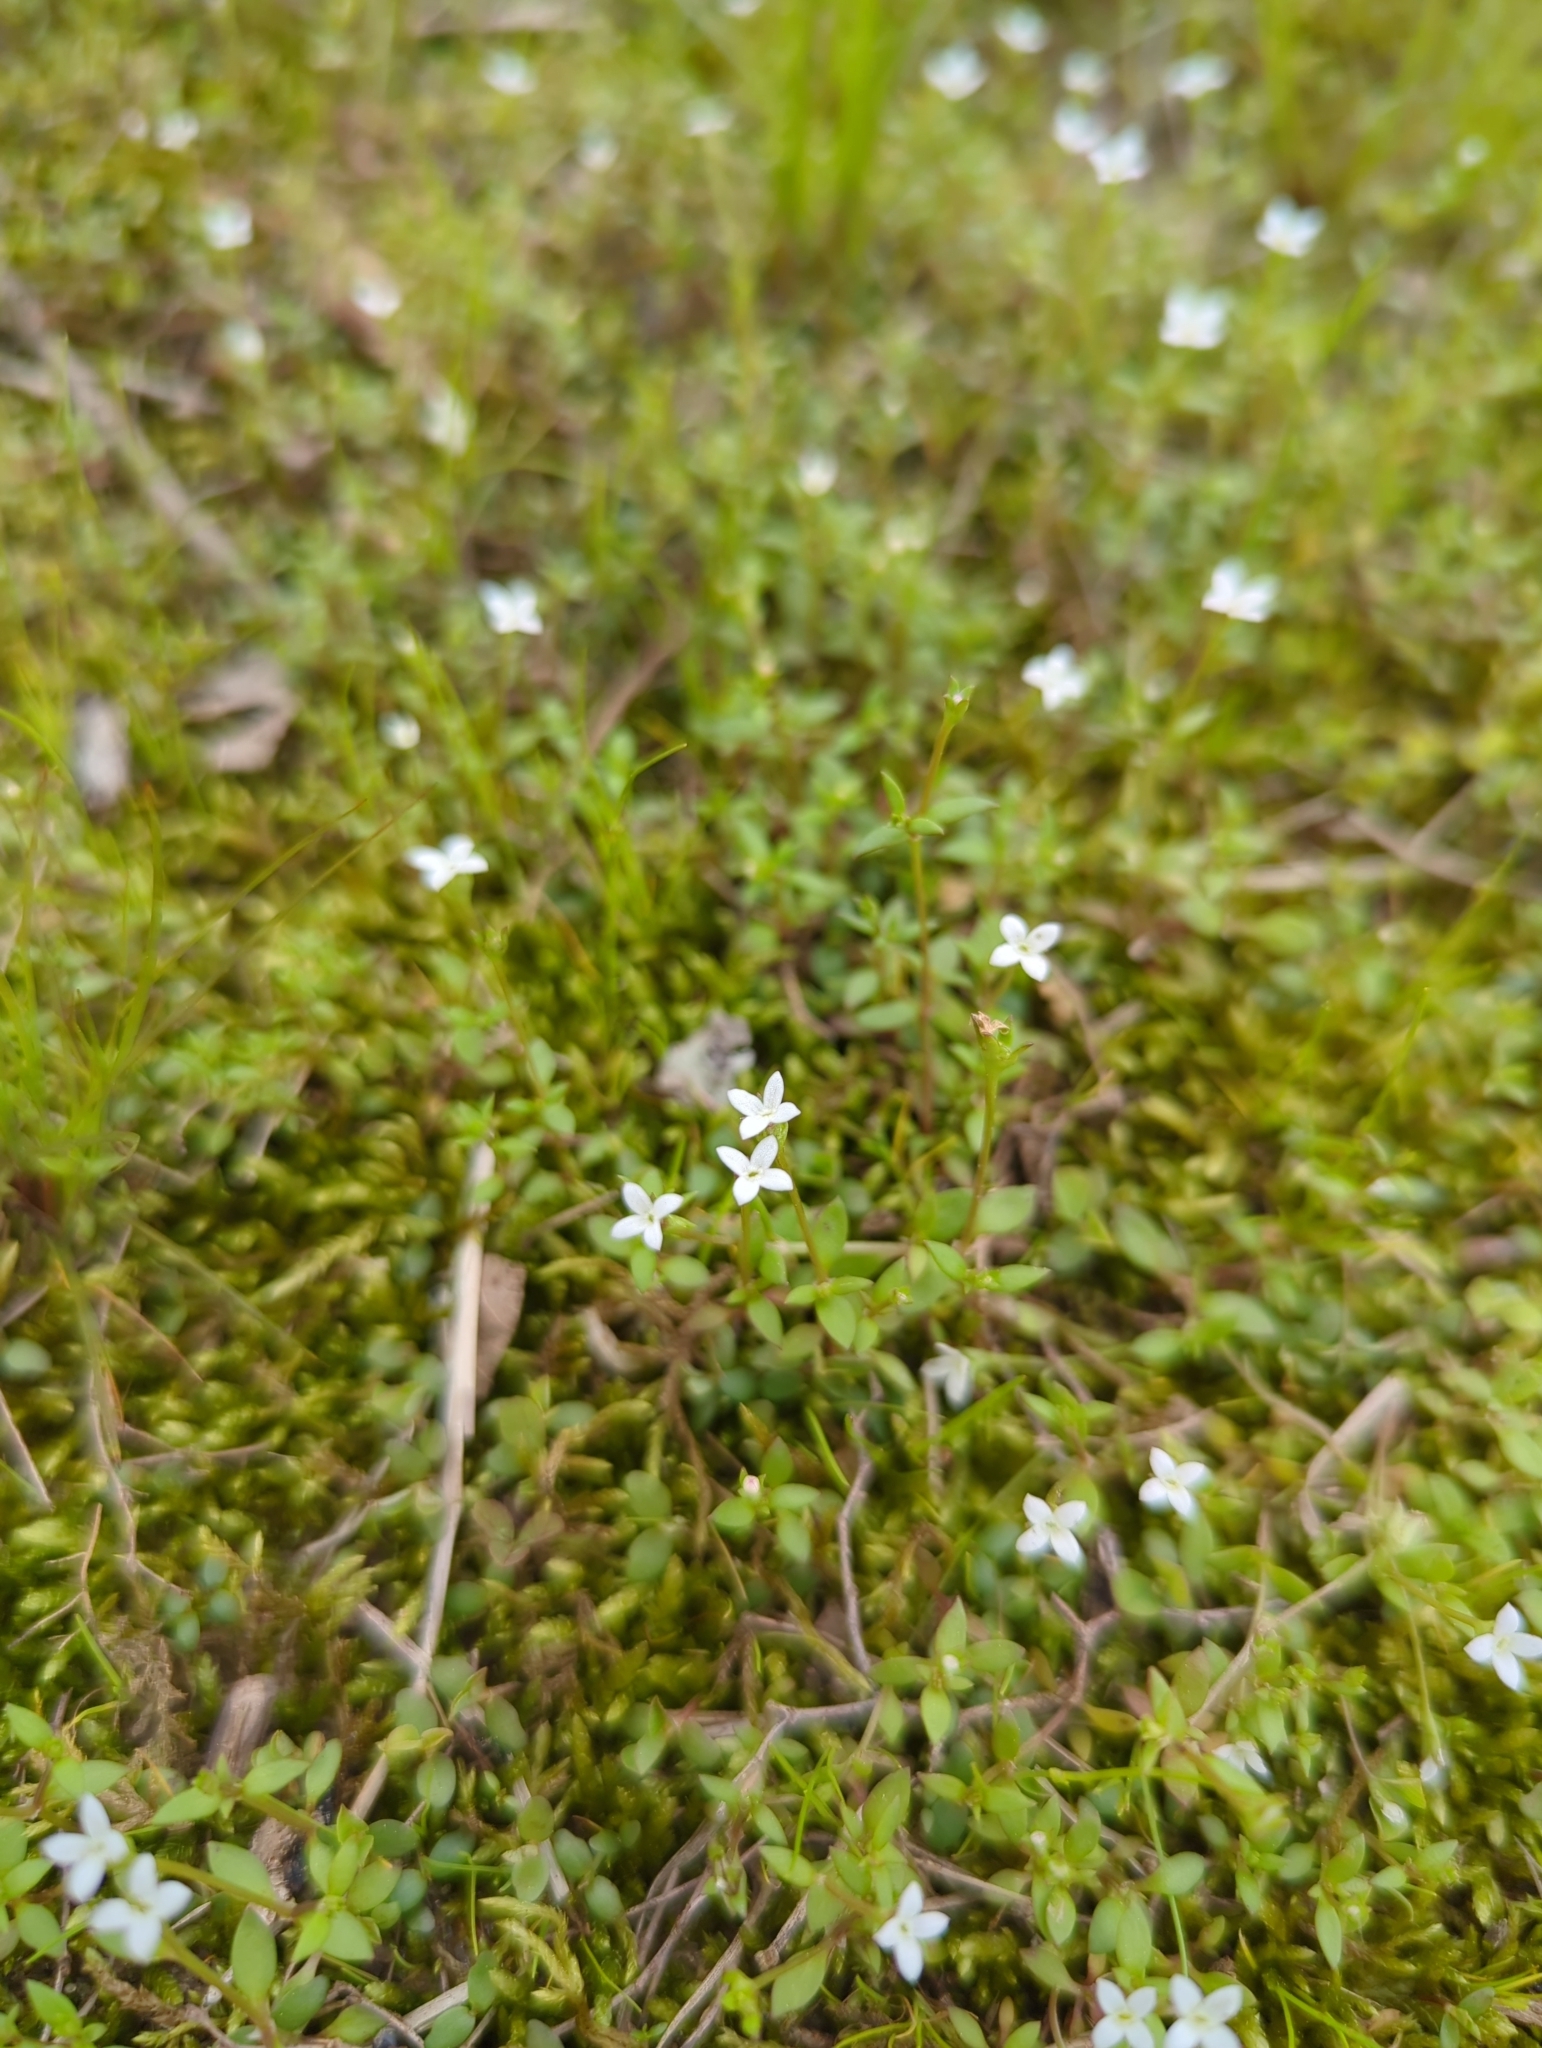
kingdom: Plantae
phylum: Tracheophyta
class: Magnoliopsida
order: Gentianales
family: Rubiaceae
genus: Houstonia
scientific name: Houstonia micrantha
